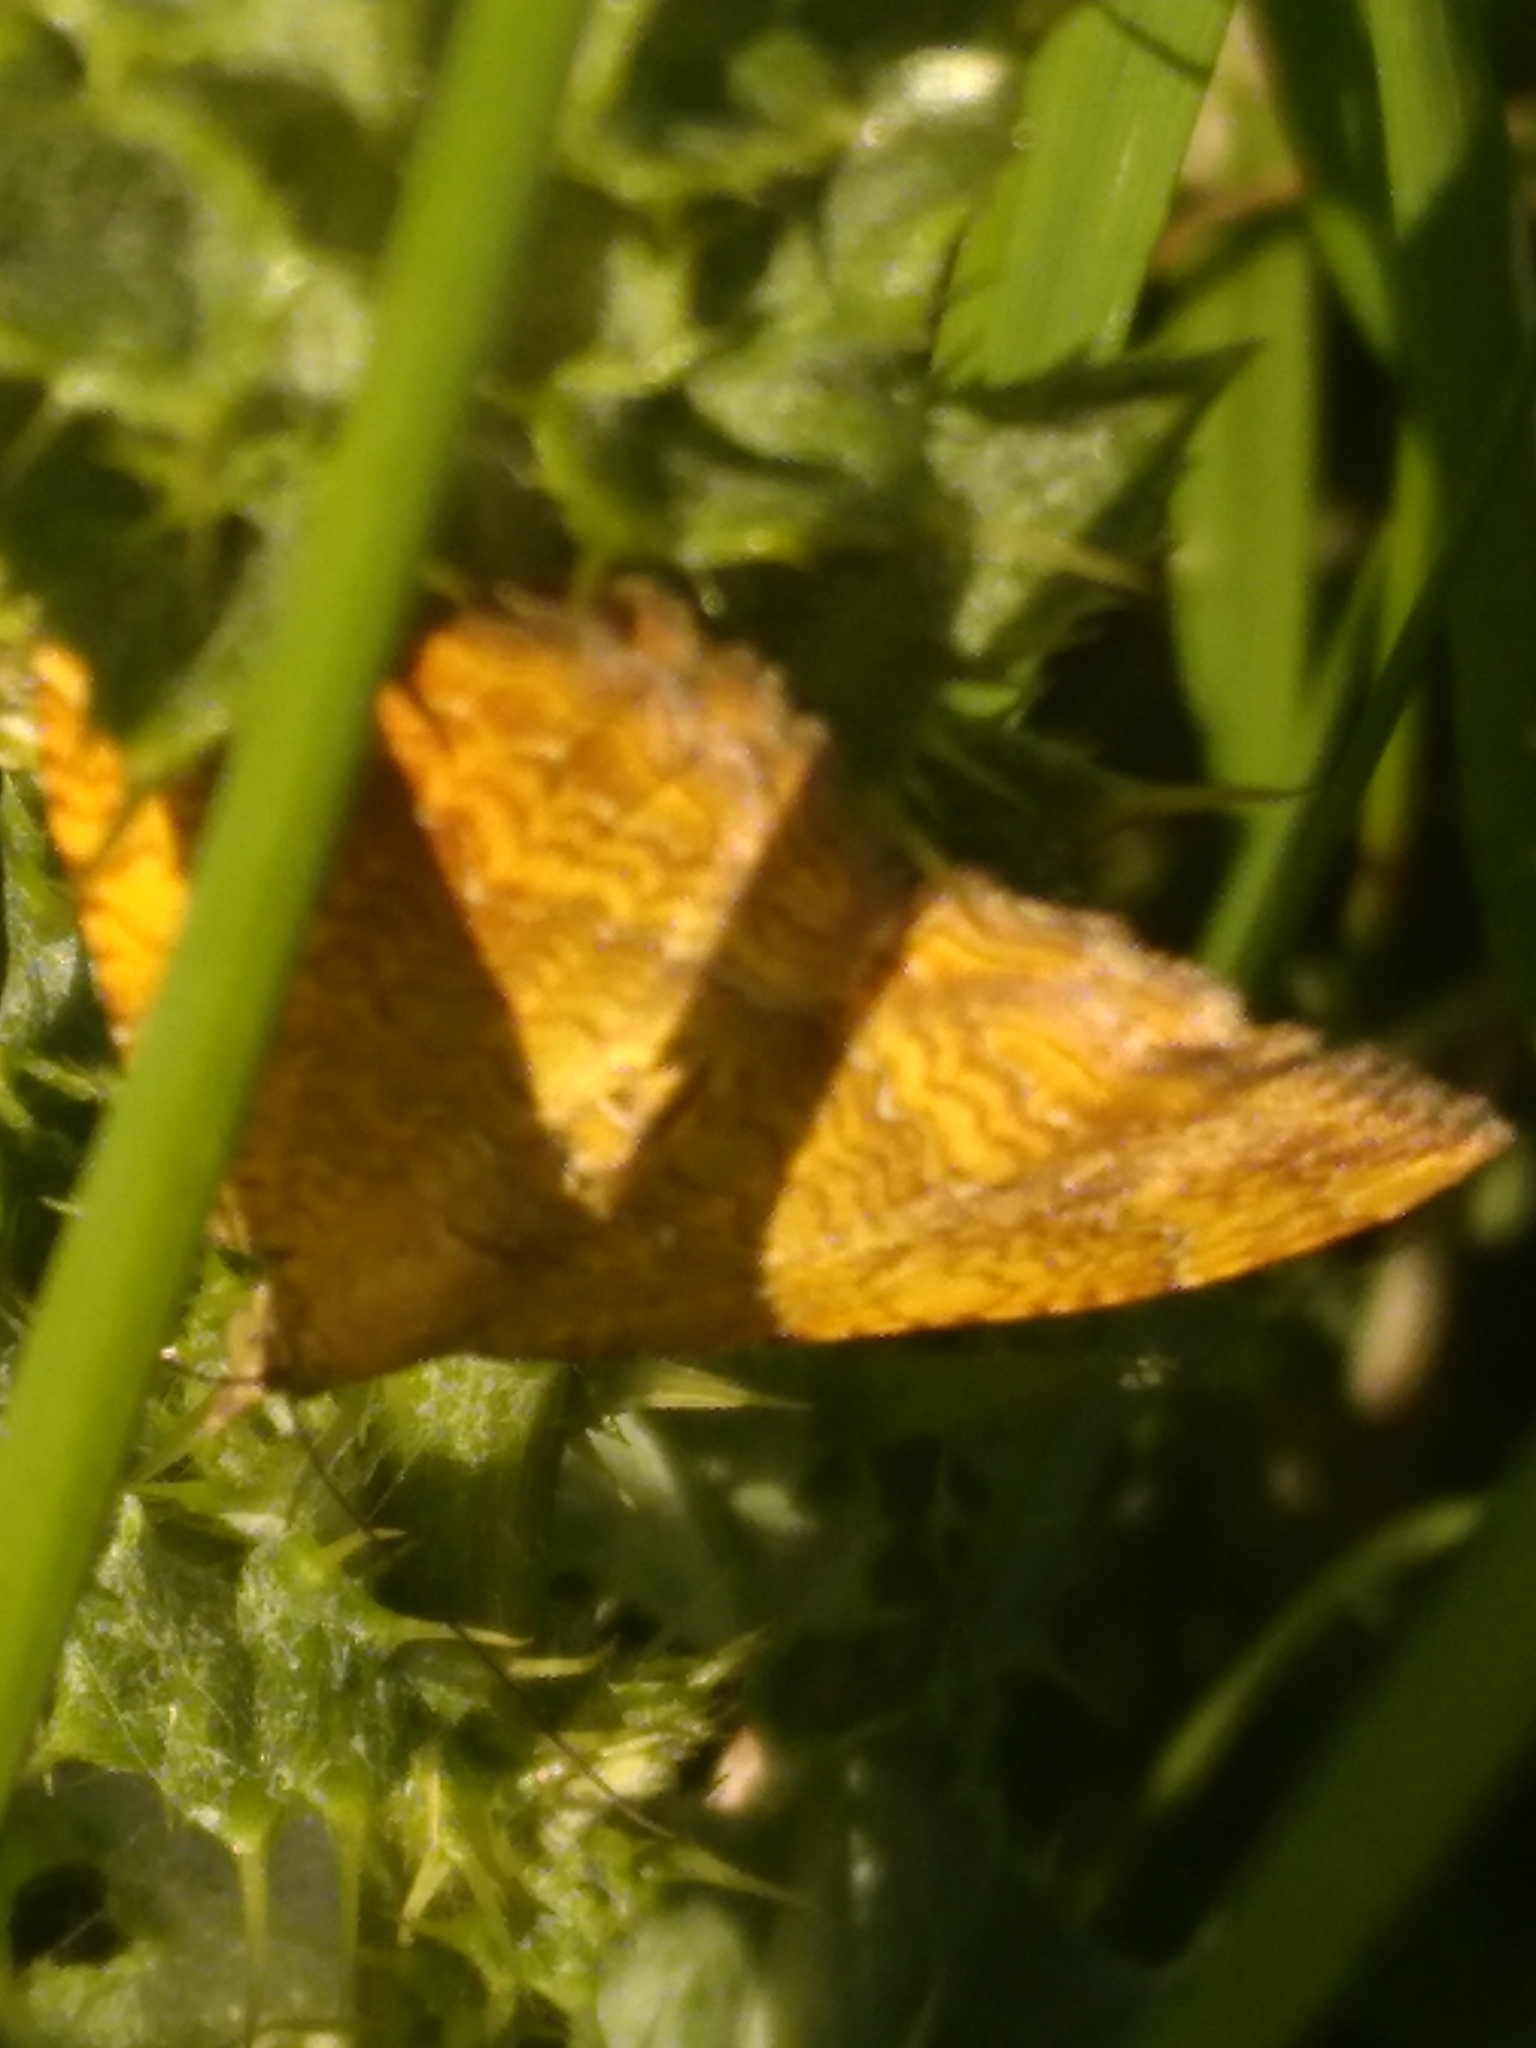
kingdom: Animalia
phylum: Arthropoda
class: Insecta
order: Lepidoptera
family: Geometridae
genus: Camptogramma
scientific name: Camptogramma bilineata
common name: Yellow shell
